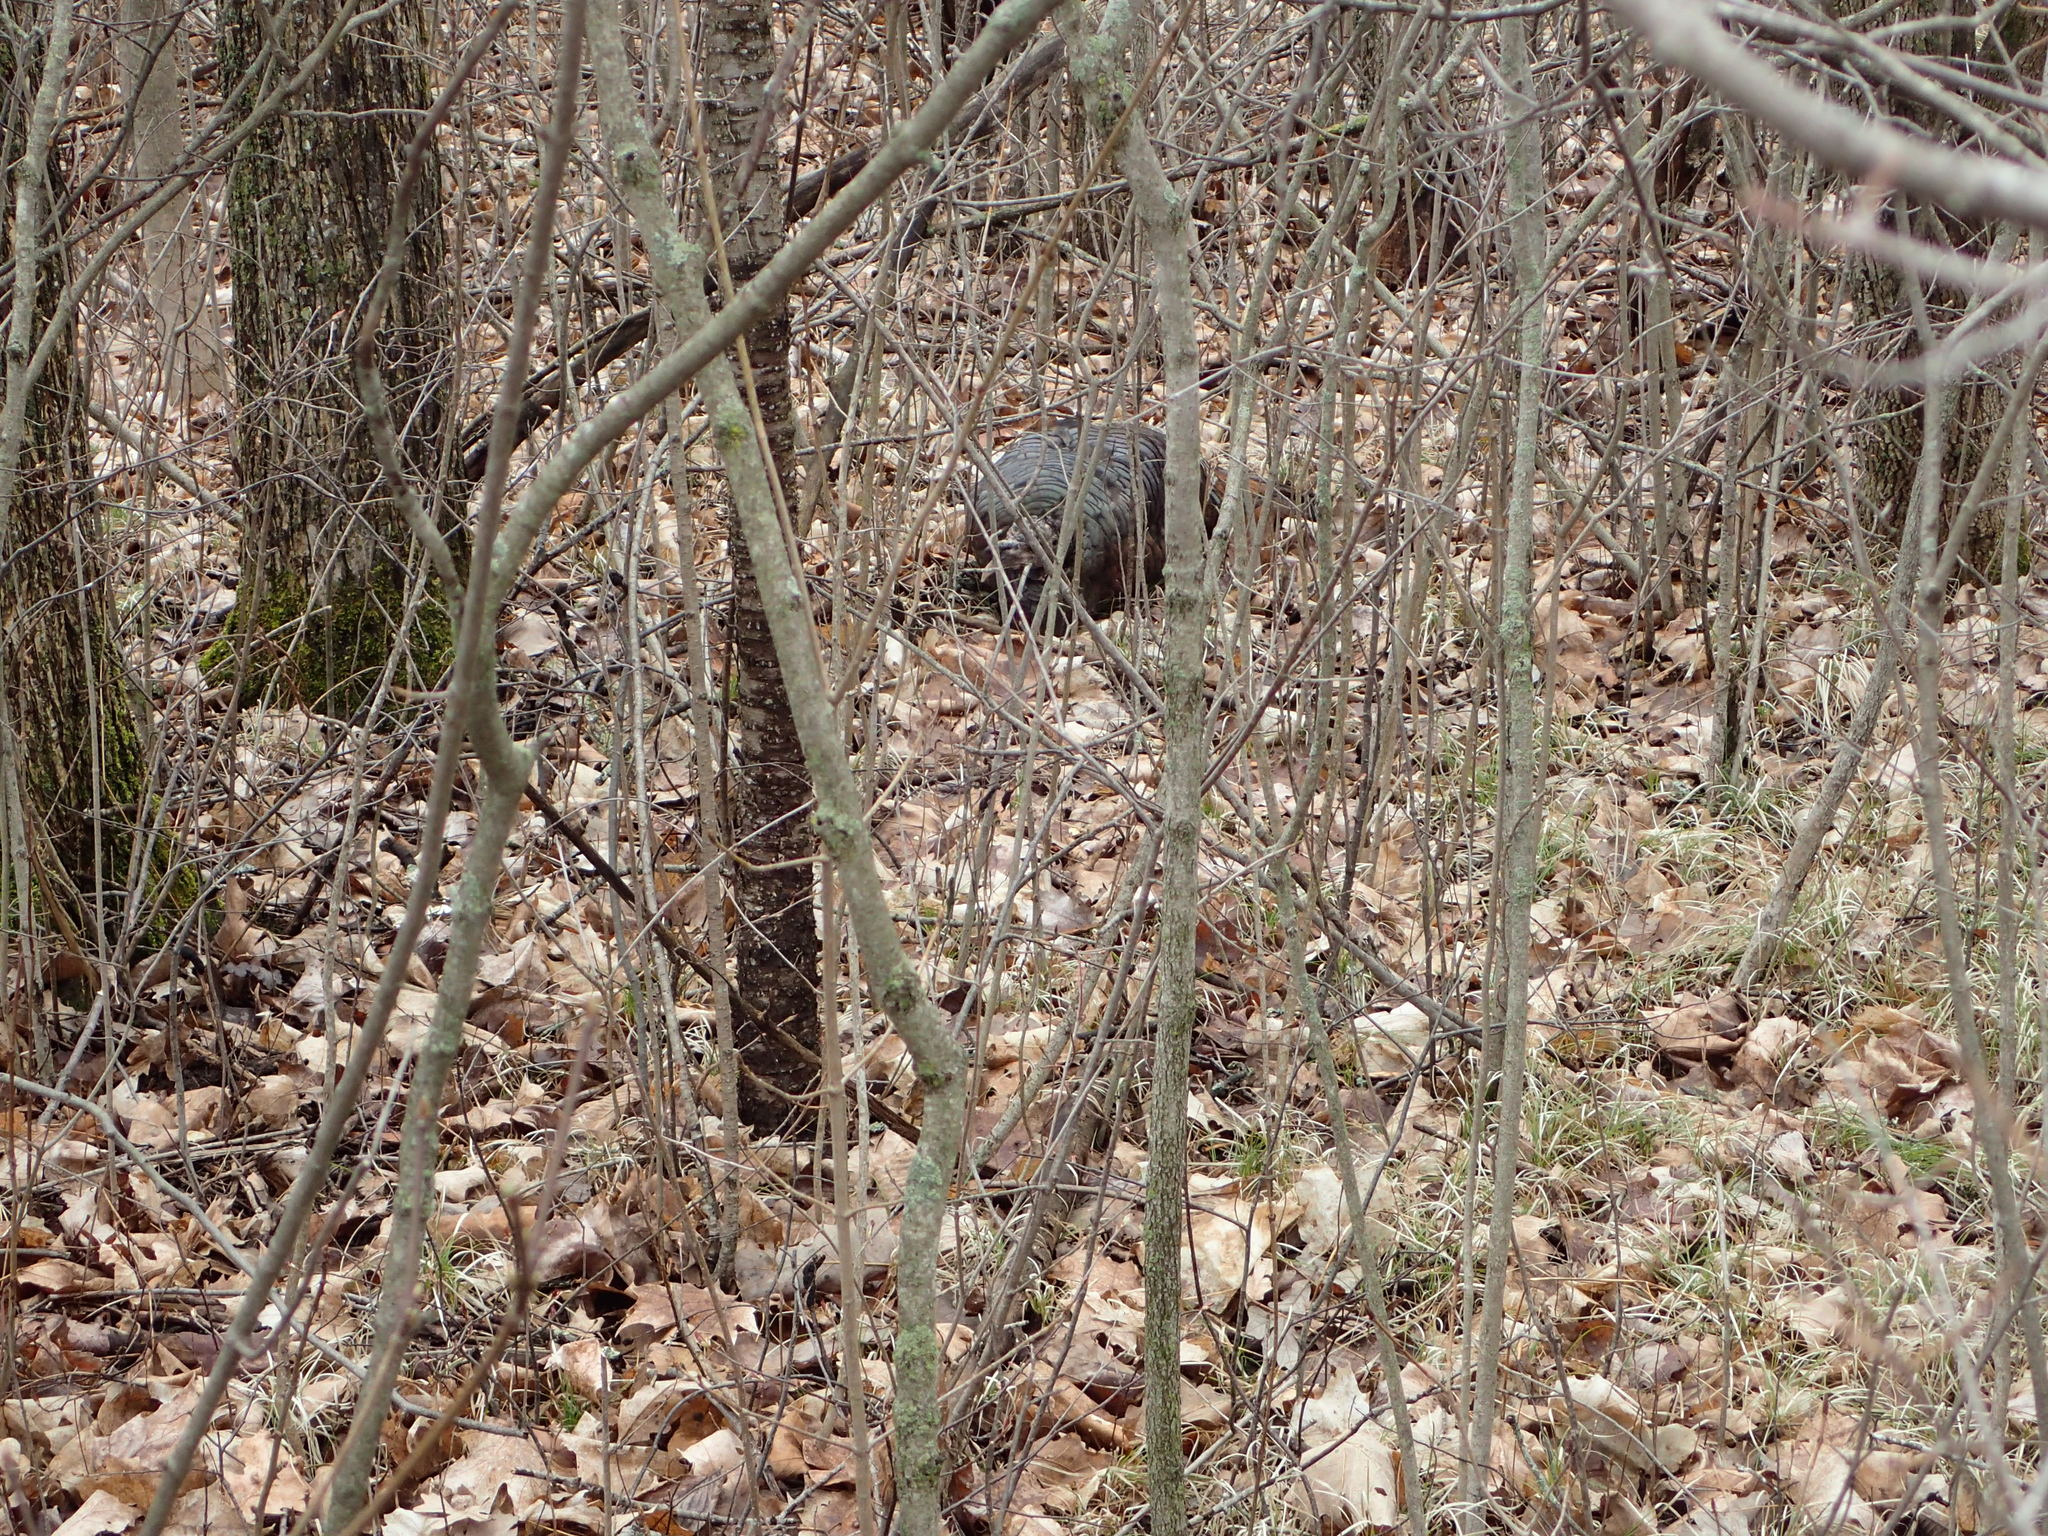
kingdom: Animalia
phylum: Chordata
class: Aves
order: Galliformes
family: Phasianidae
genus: Meleagris
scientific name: Meleagris gallopavo
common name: Wild turkey
